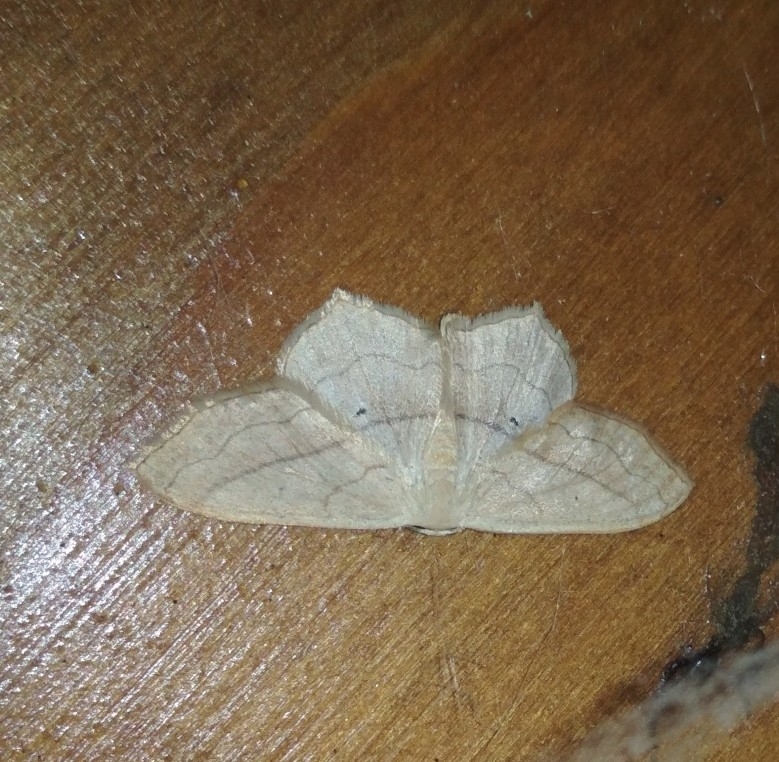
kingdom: Animalia
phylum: Arthropoda
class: Insecta
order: Lepidoptera
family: Geometridae
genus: Scopula
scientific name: Scopula imitaria
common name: Small blood-vein
